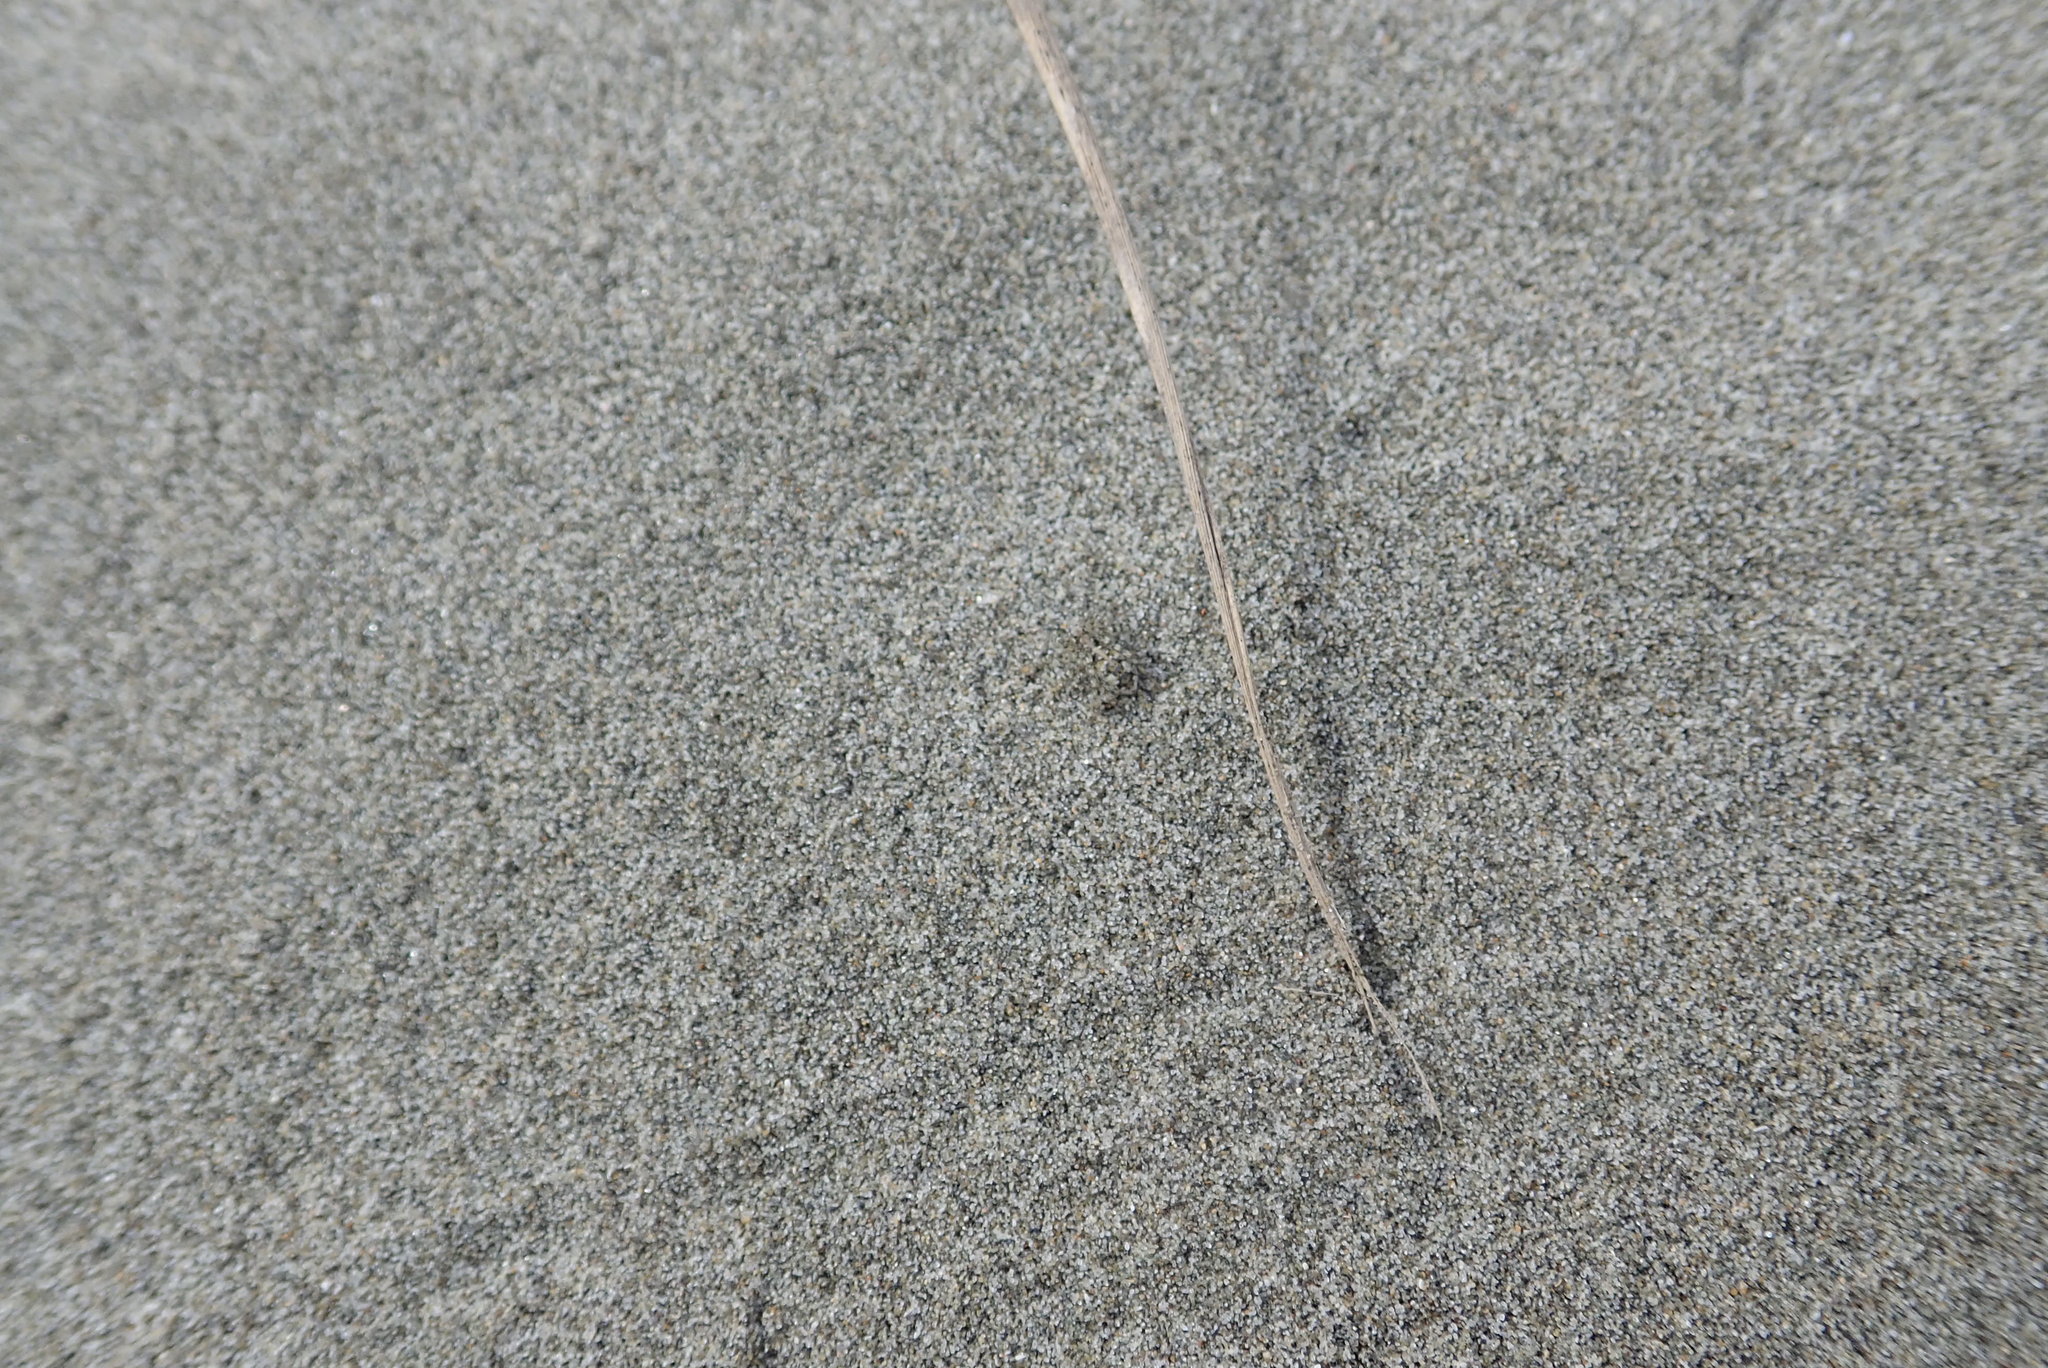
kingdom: Animalia
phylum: Arthropoda
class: Arachnida
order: Araneae
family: Lycosidae
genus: Anoteropsis
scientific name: Anoteropsis litoralis
